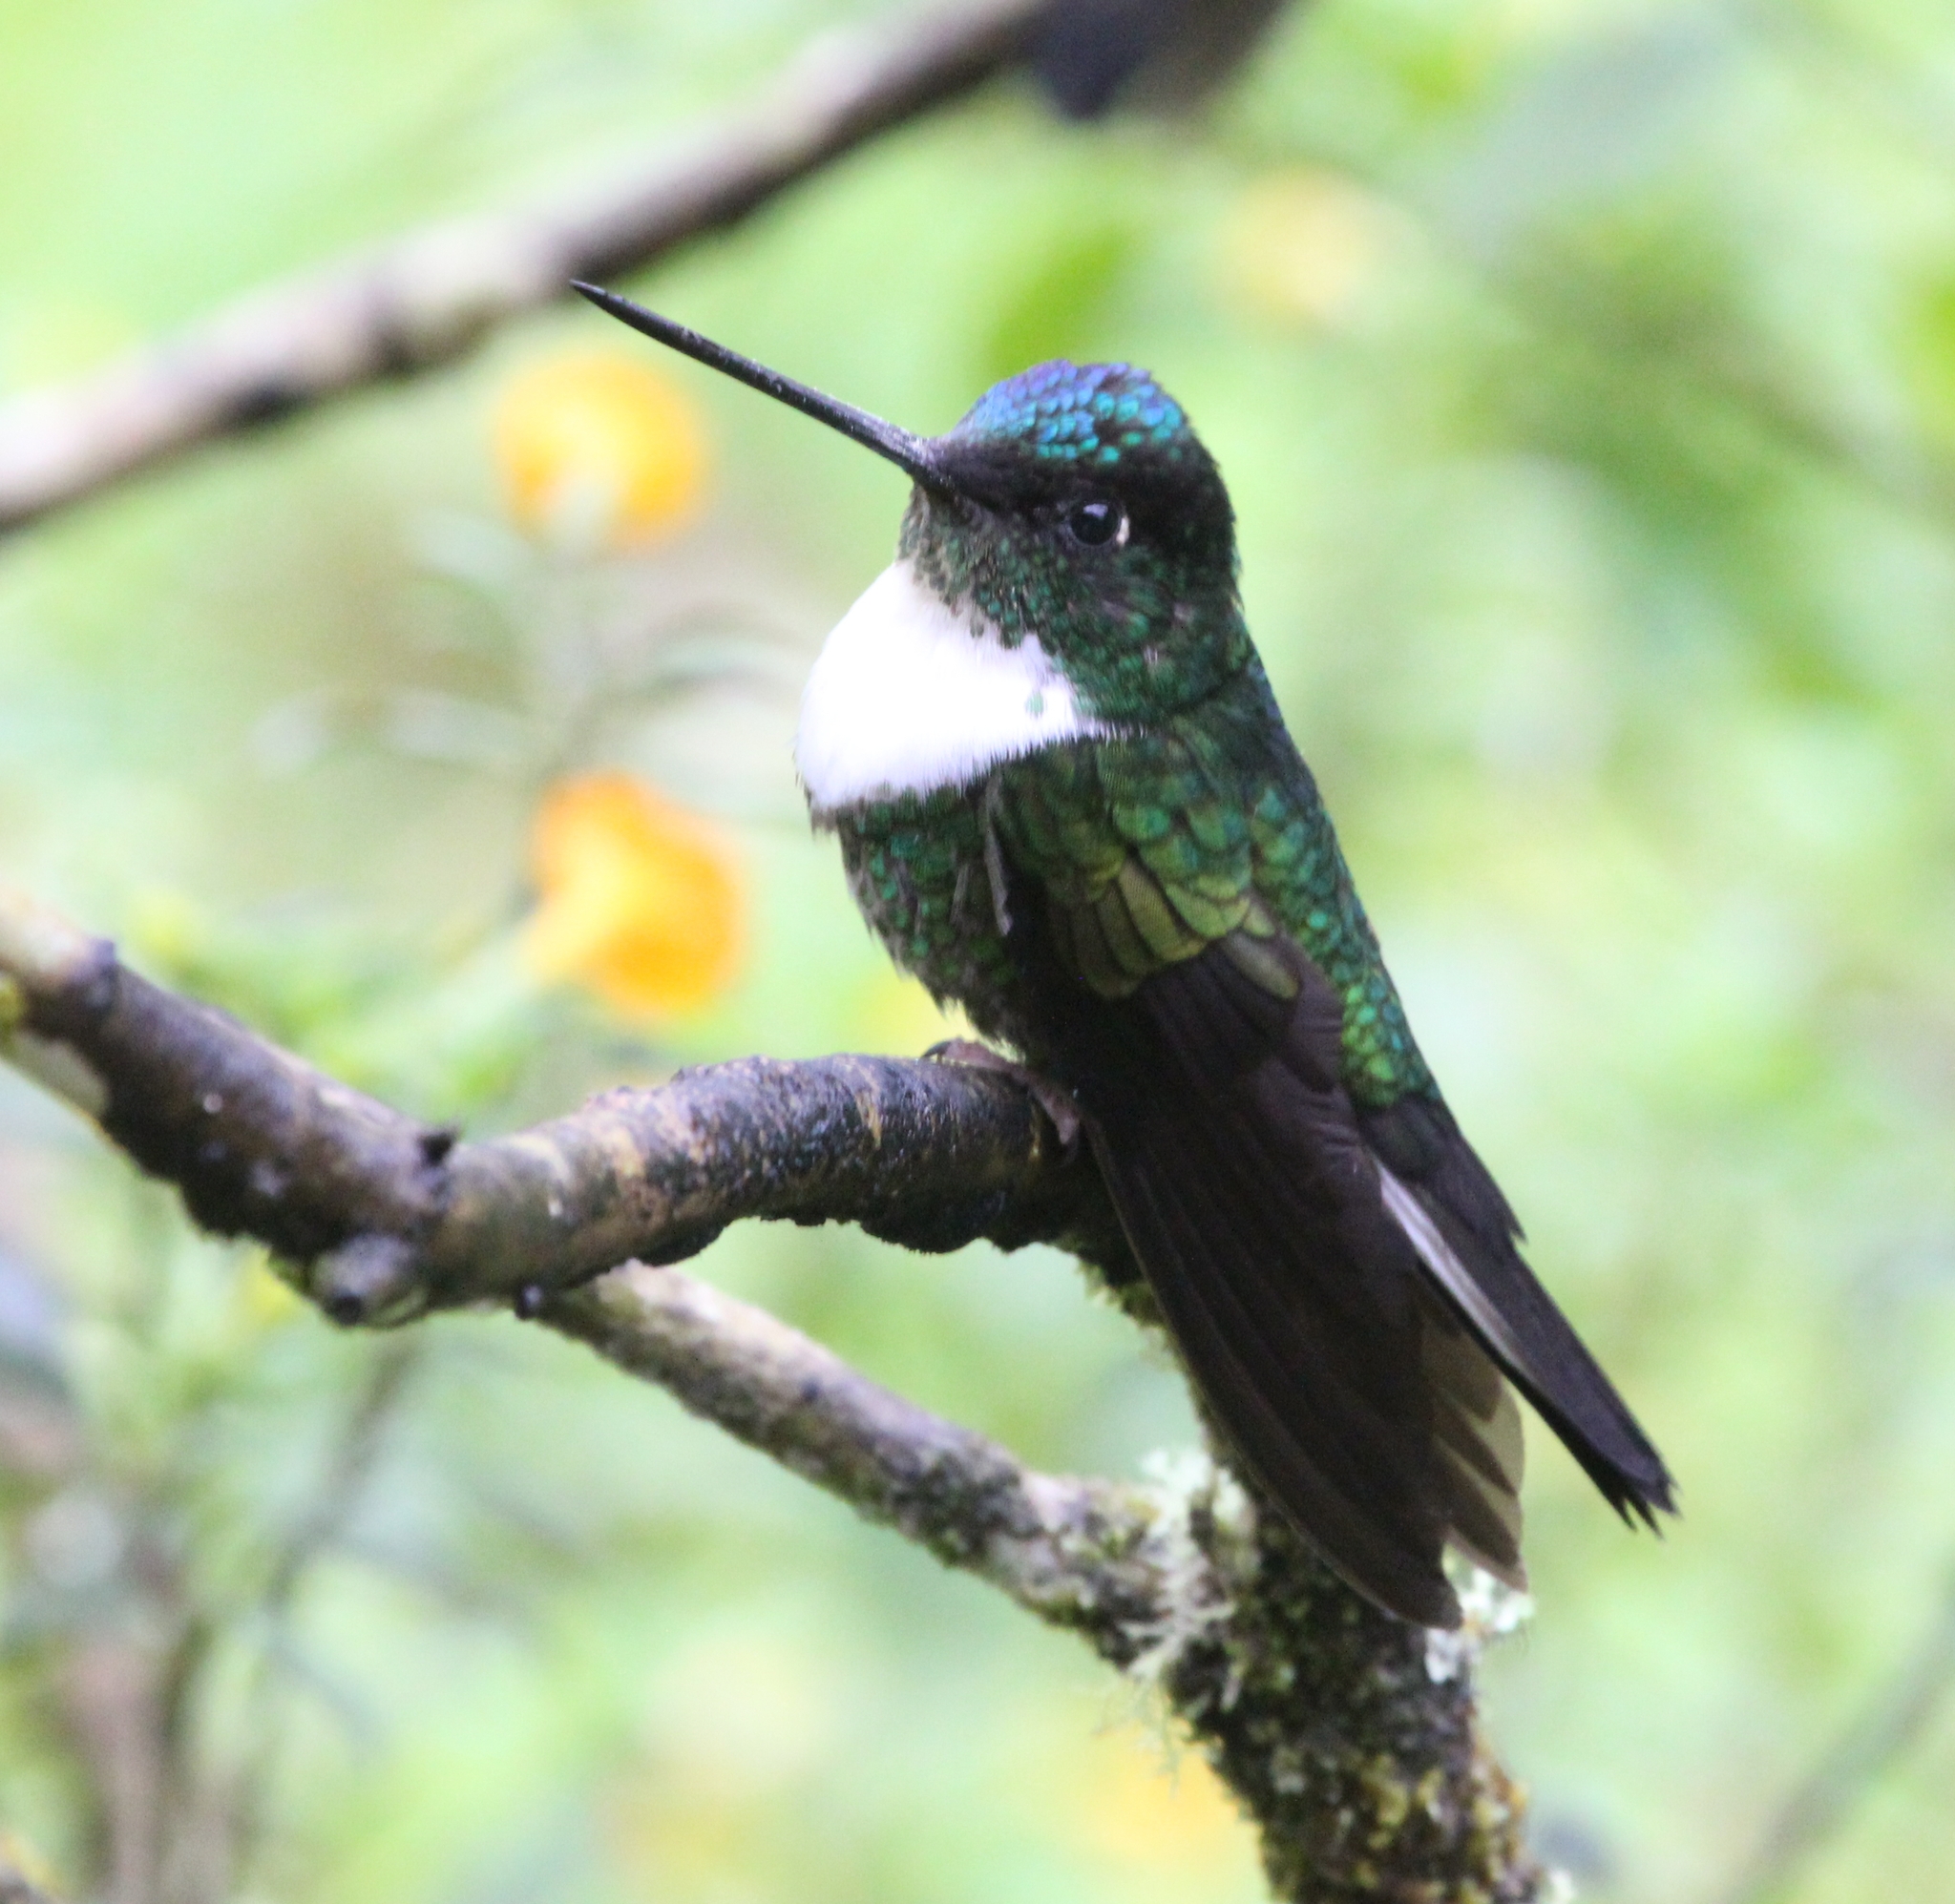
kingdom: Animalia
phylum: Chordata
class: Aves
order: Apodiformes
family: Trochilidae
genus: Coeligena
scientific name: Coeligena torquata
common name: Collared inca
